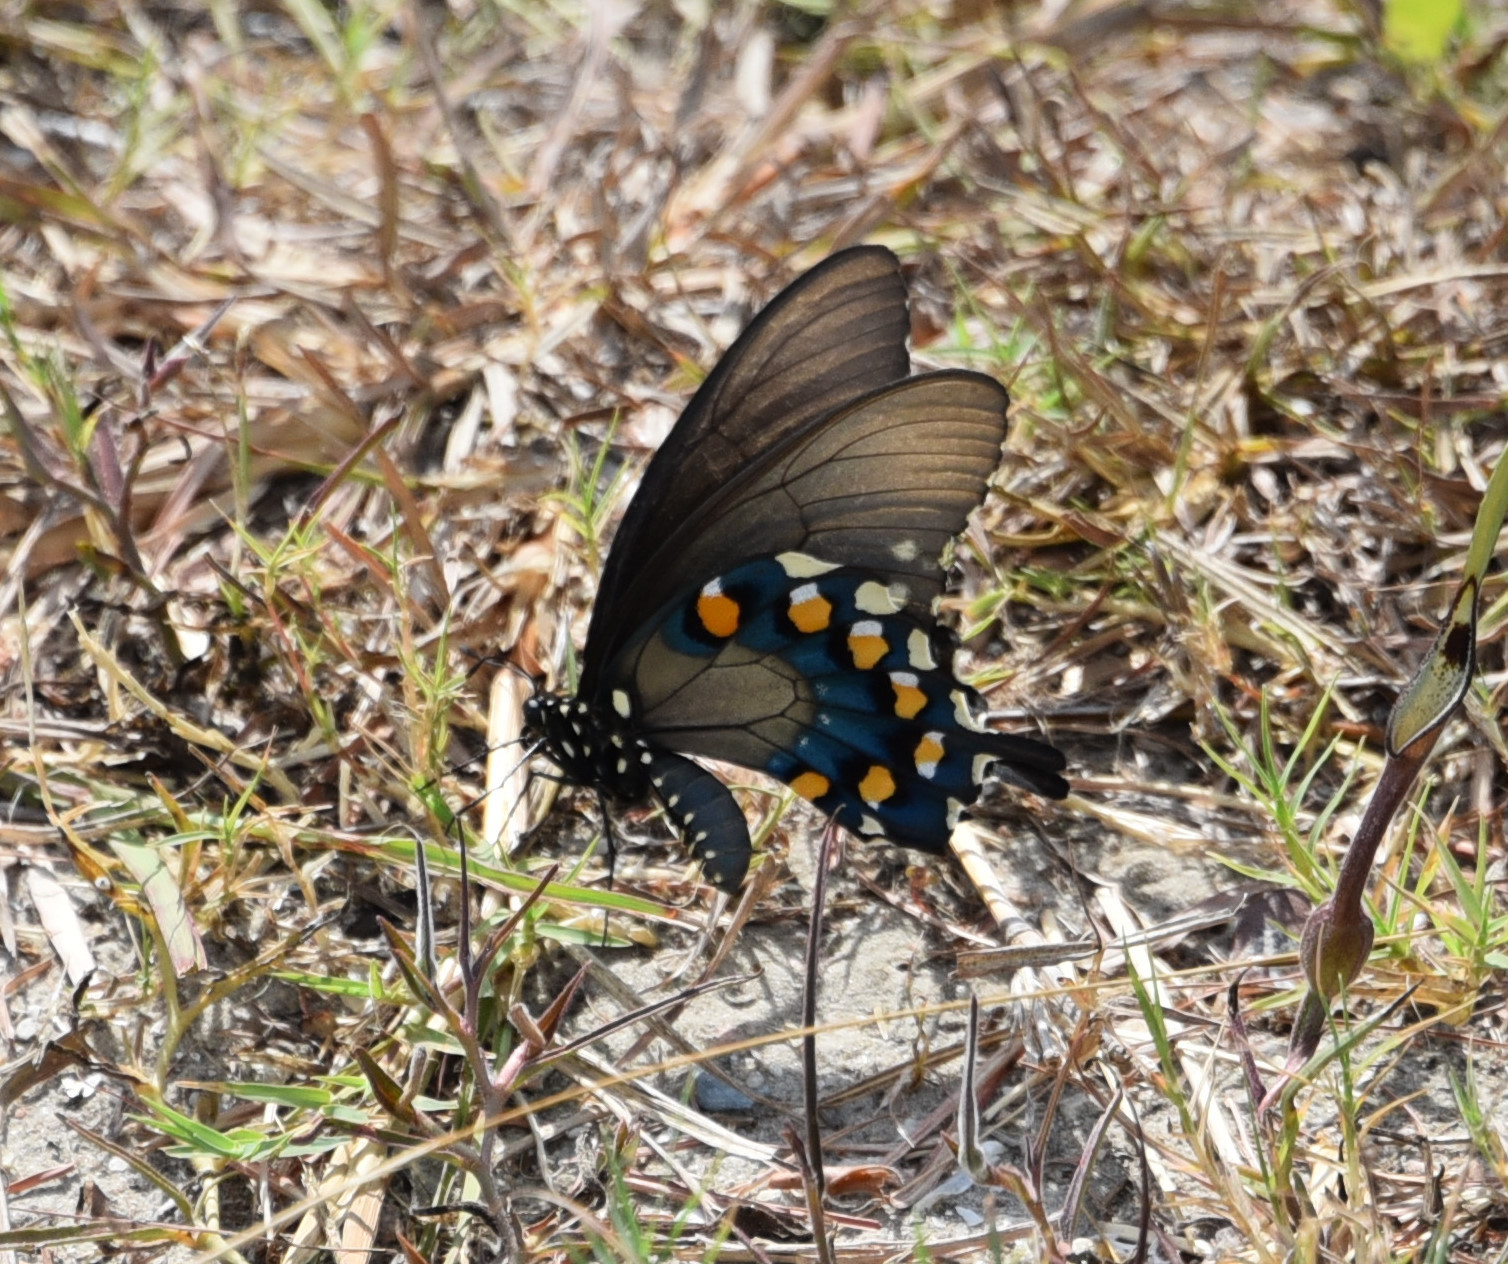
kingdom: Animalia
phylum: Arthropoda
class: Insecta
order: Lepidoptera
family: Papilionidae
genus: Battus
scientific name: Battus philenor
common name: Pipevine swallowtail
